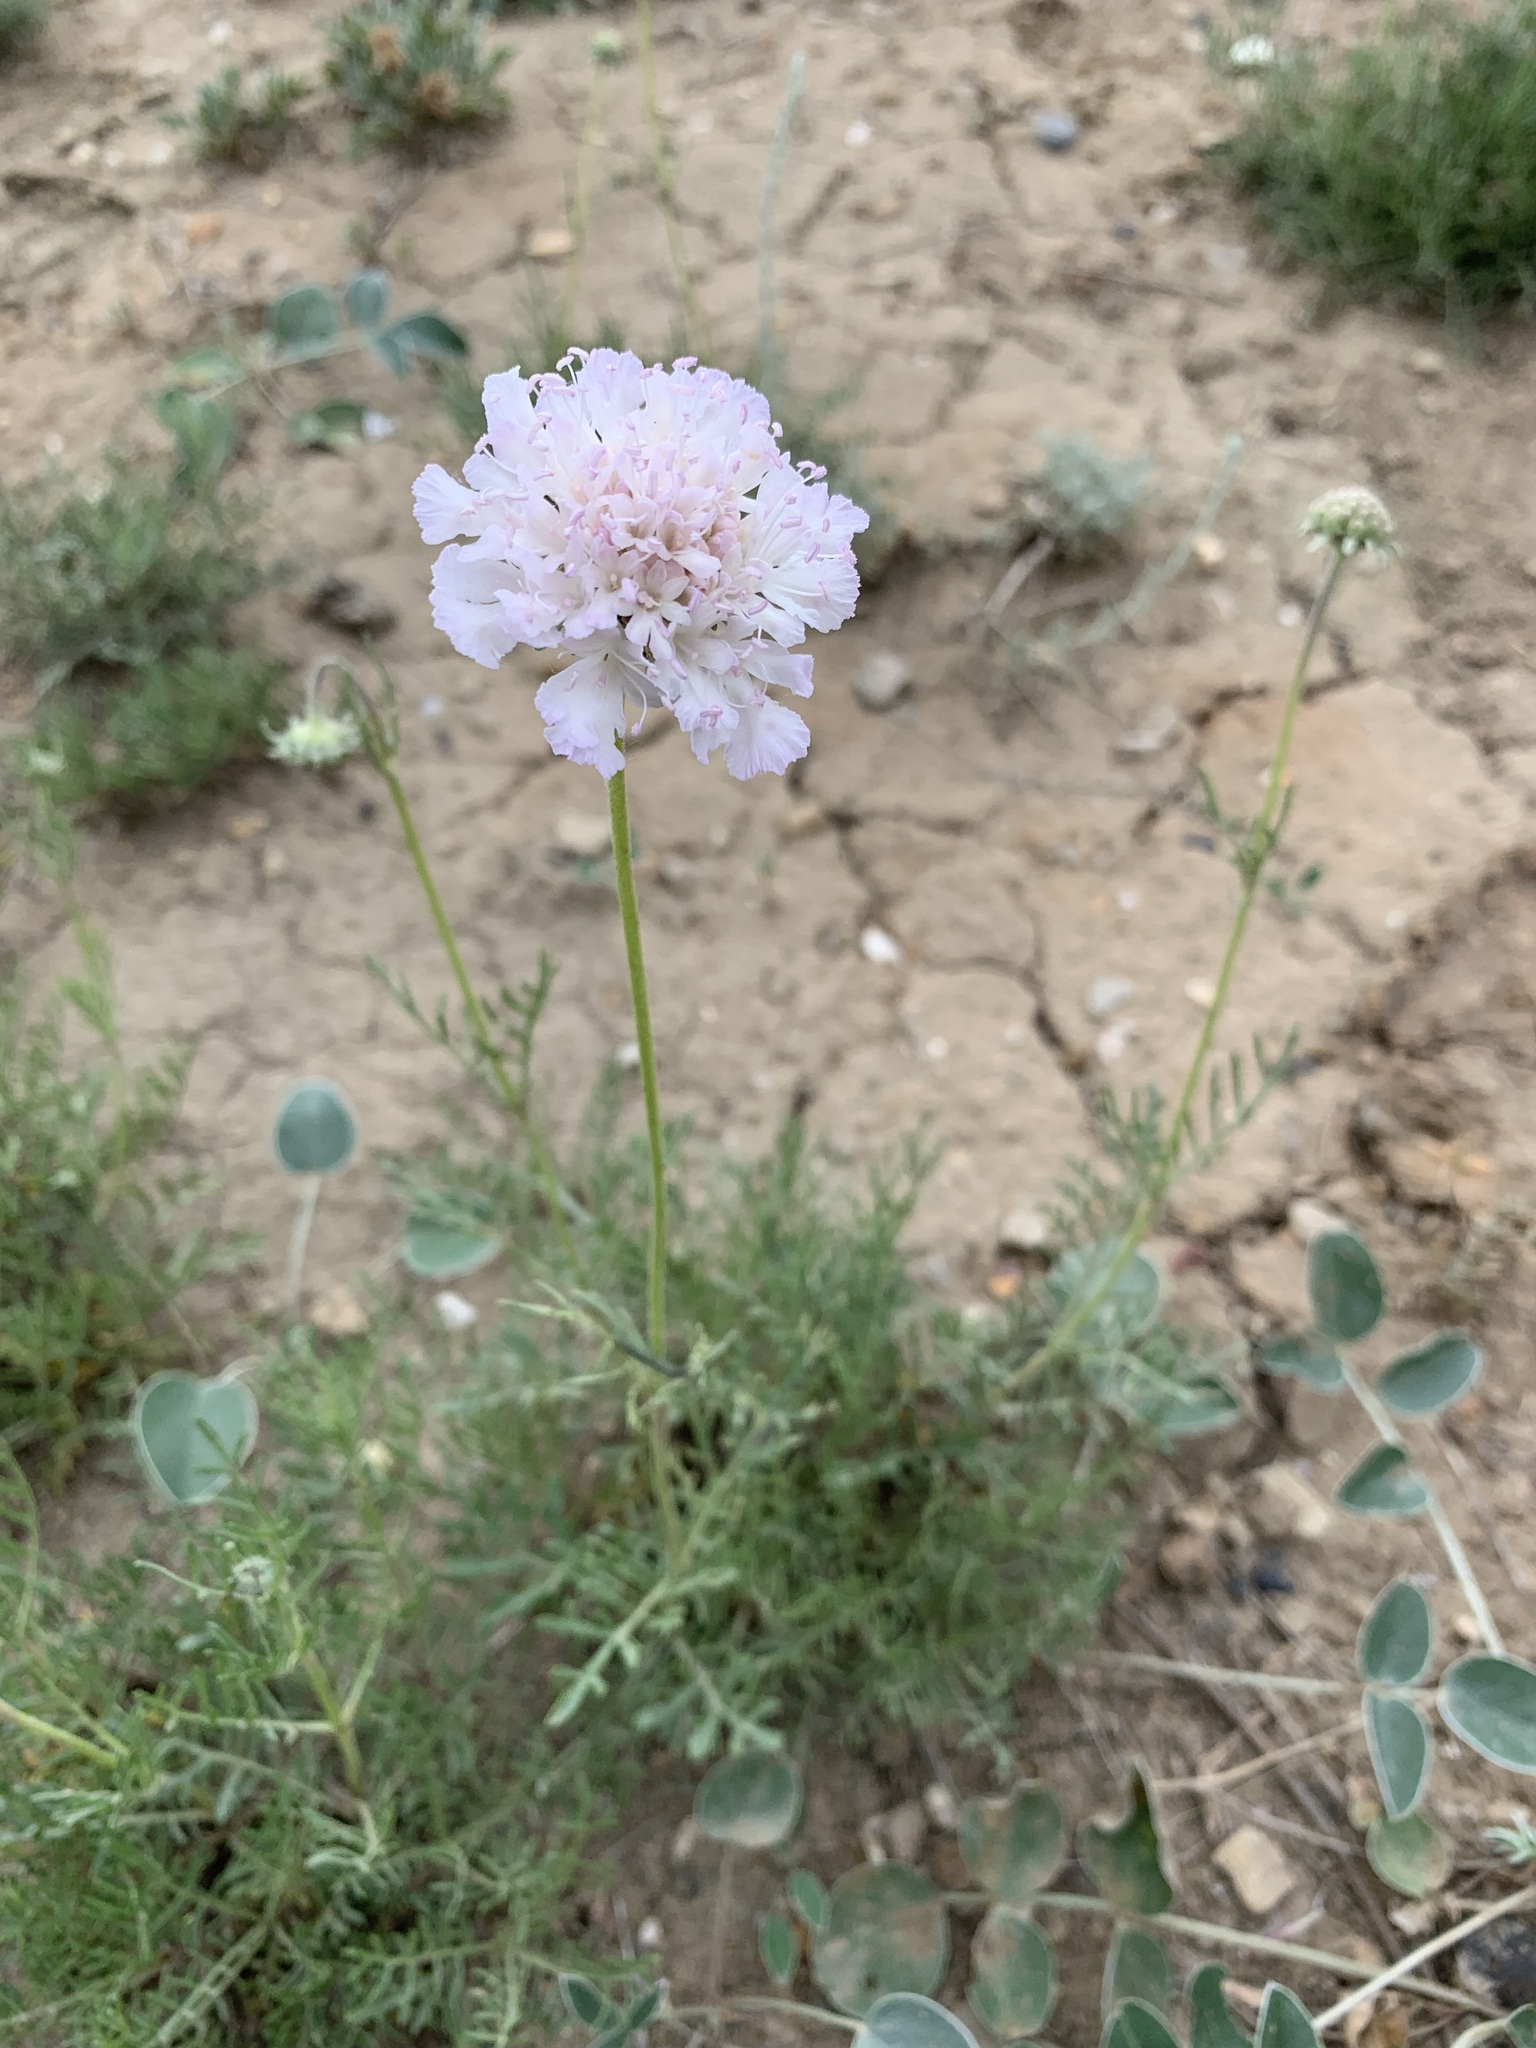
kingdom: Plantae
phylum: Tracheophyta
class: Magnoliopsida
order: Dipsacales
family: Caprifoliaceae
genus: Lomelosia
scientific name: Lomelosia isetensis
